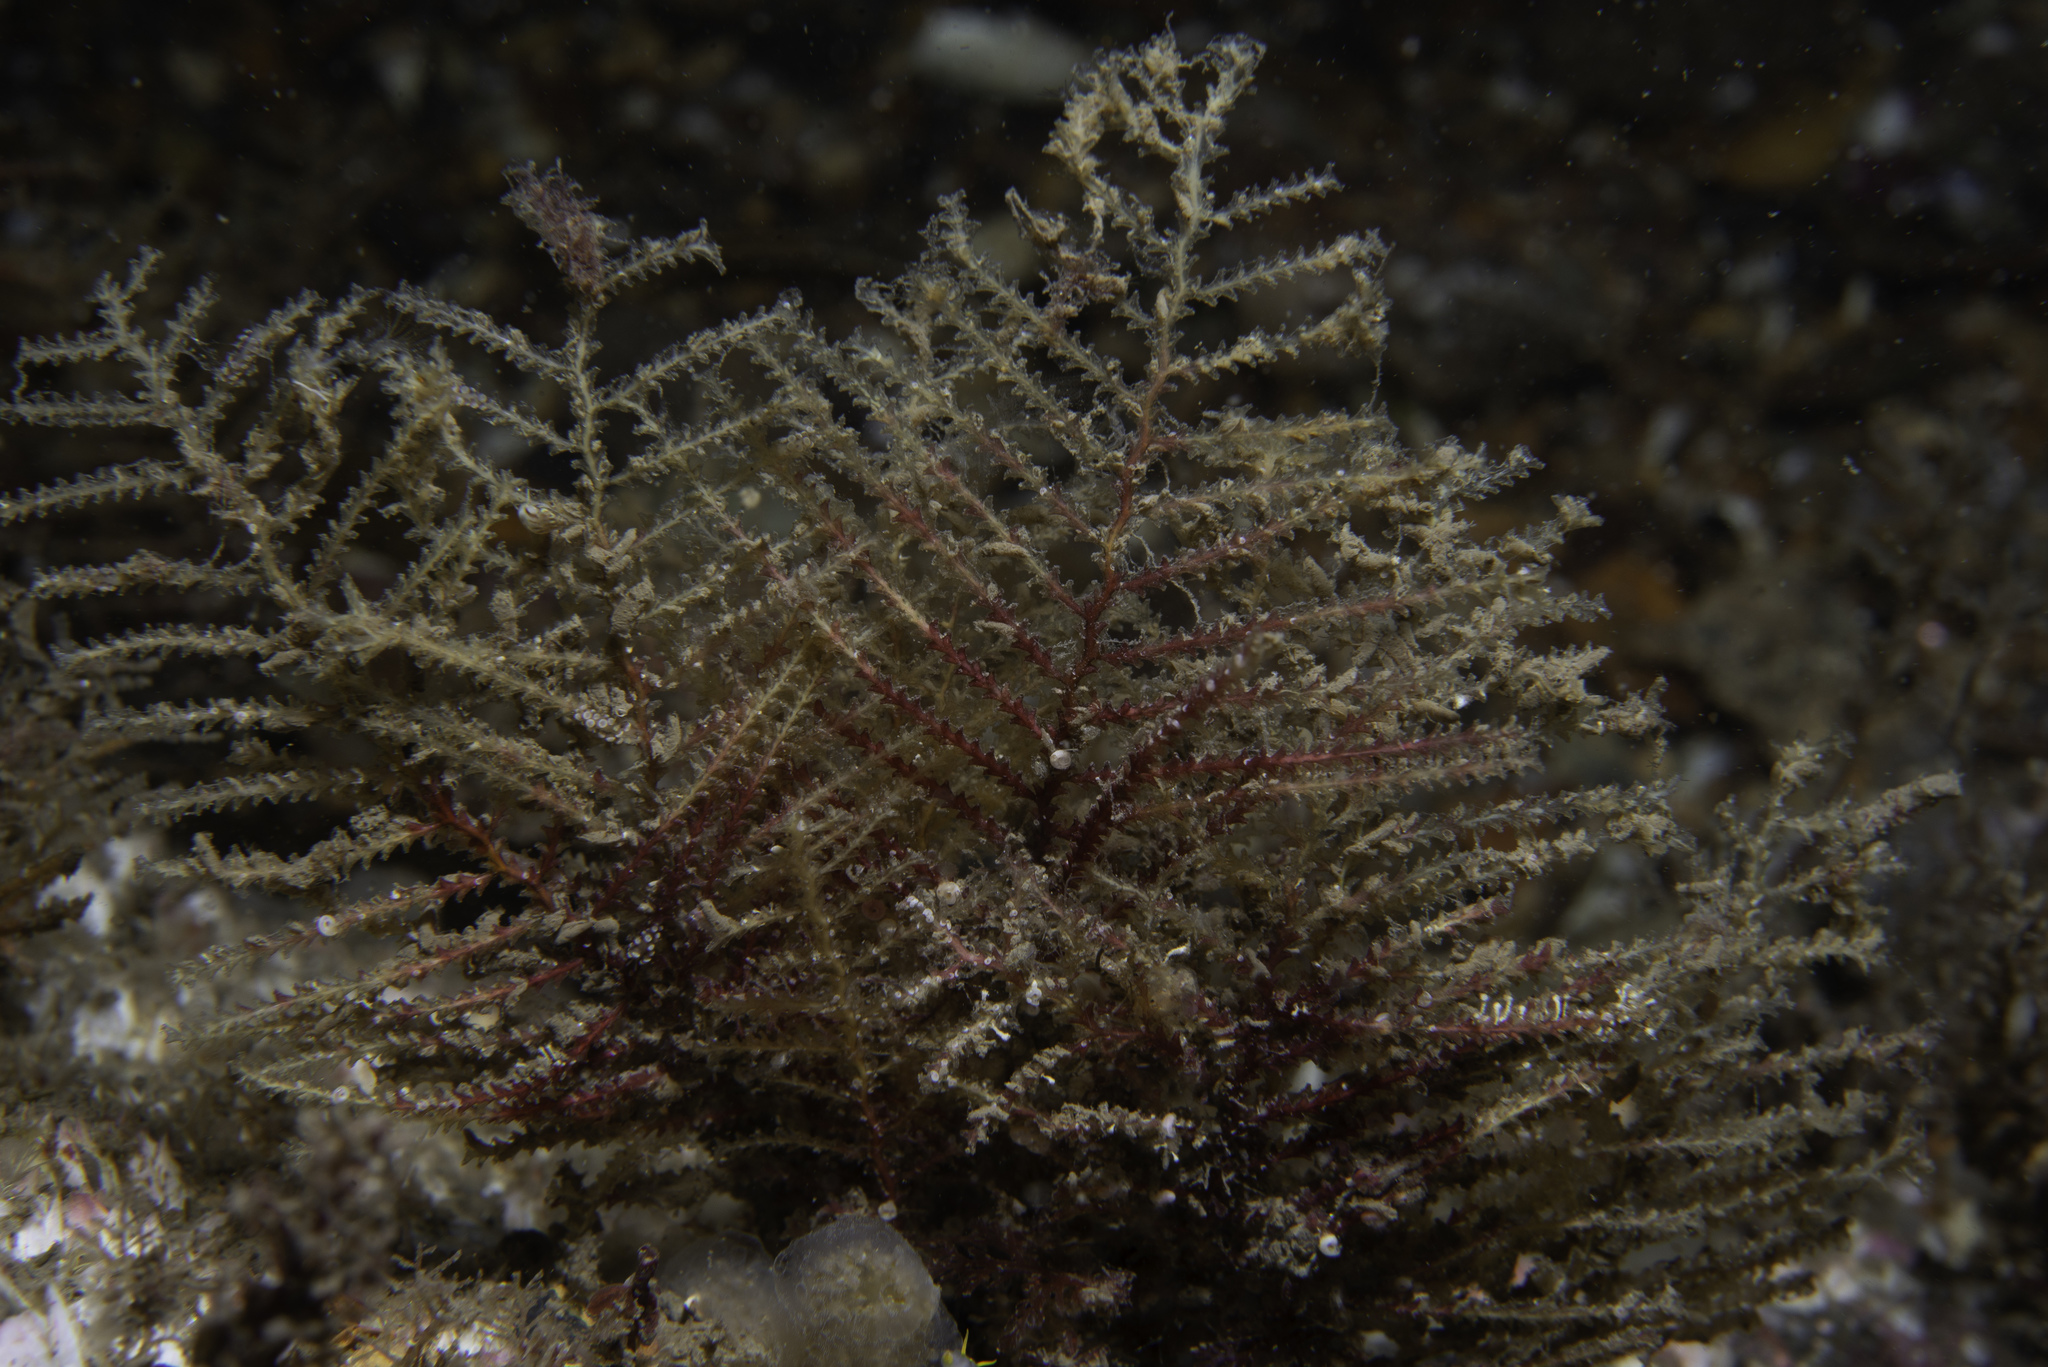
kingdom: Animalia
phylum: Cnidaria
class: Hydrozoa
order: Leptothecata
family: Sertulariidae
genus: Abietinaria
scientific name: Abietinaria abietina
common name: Sea fir
